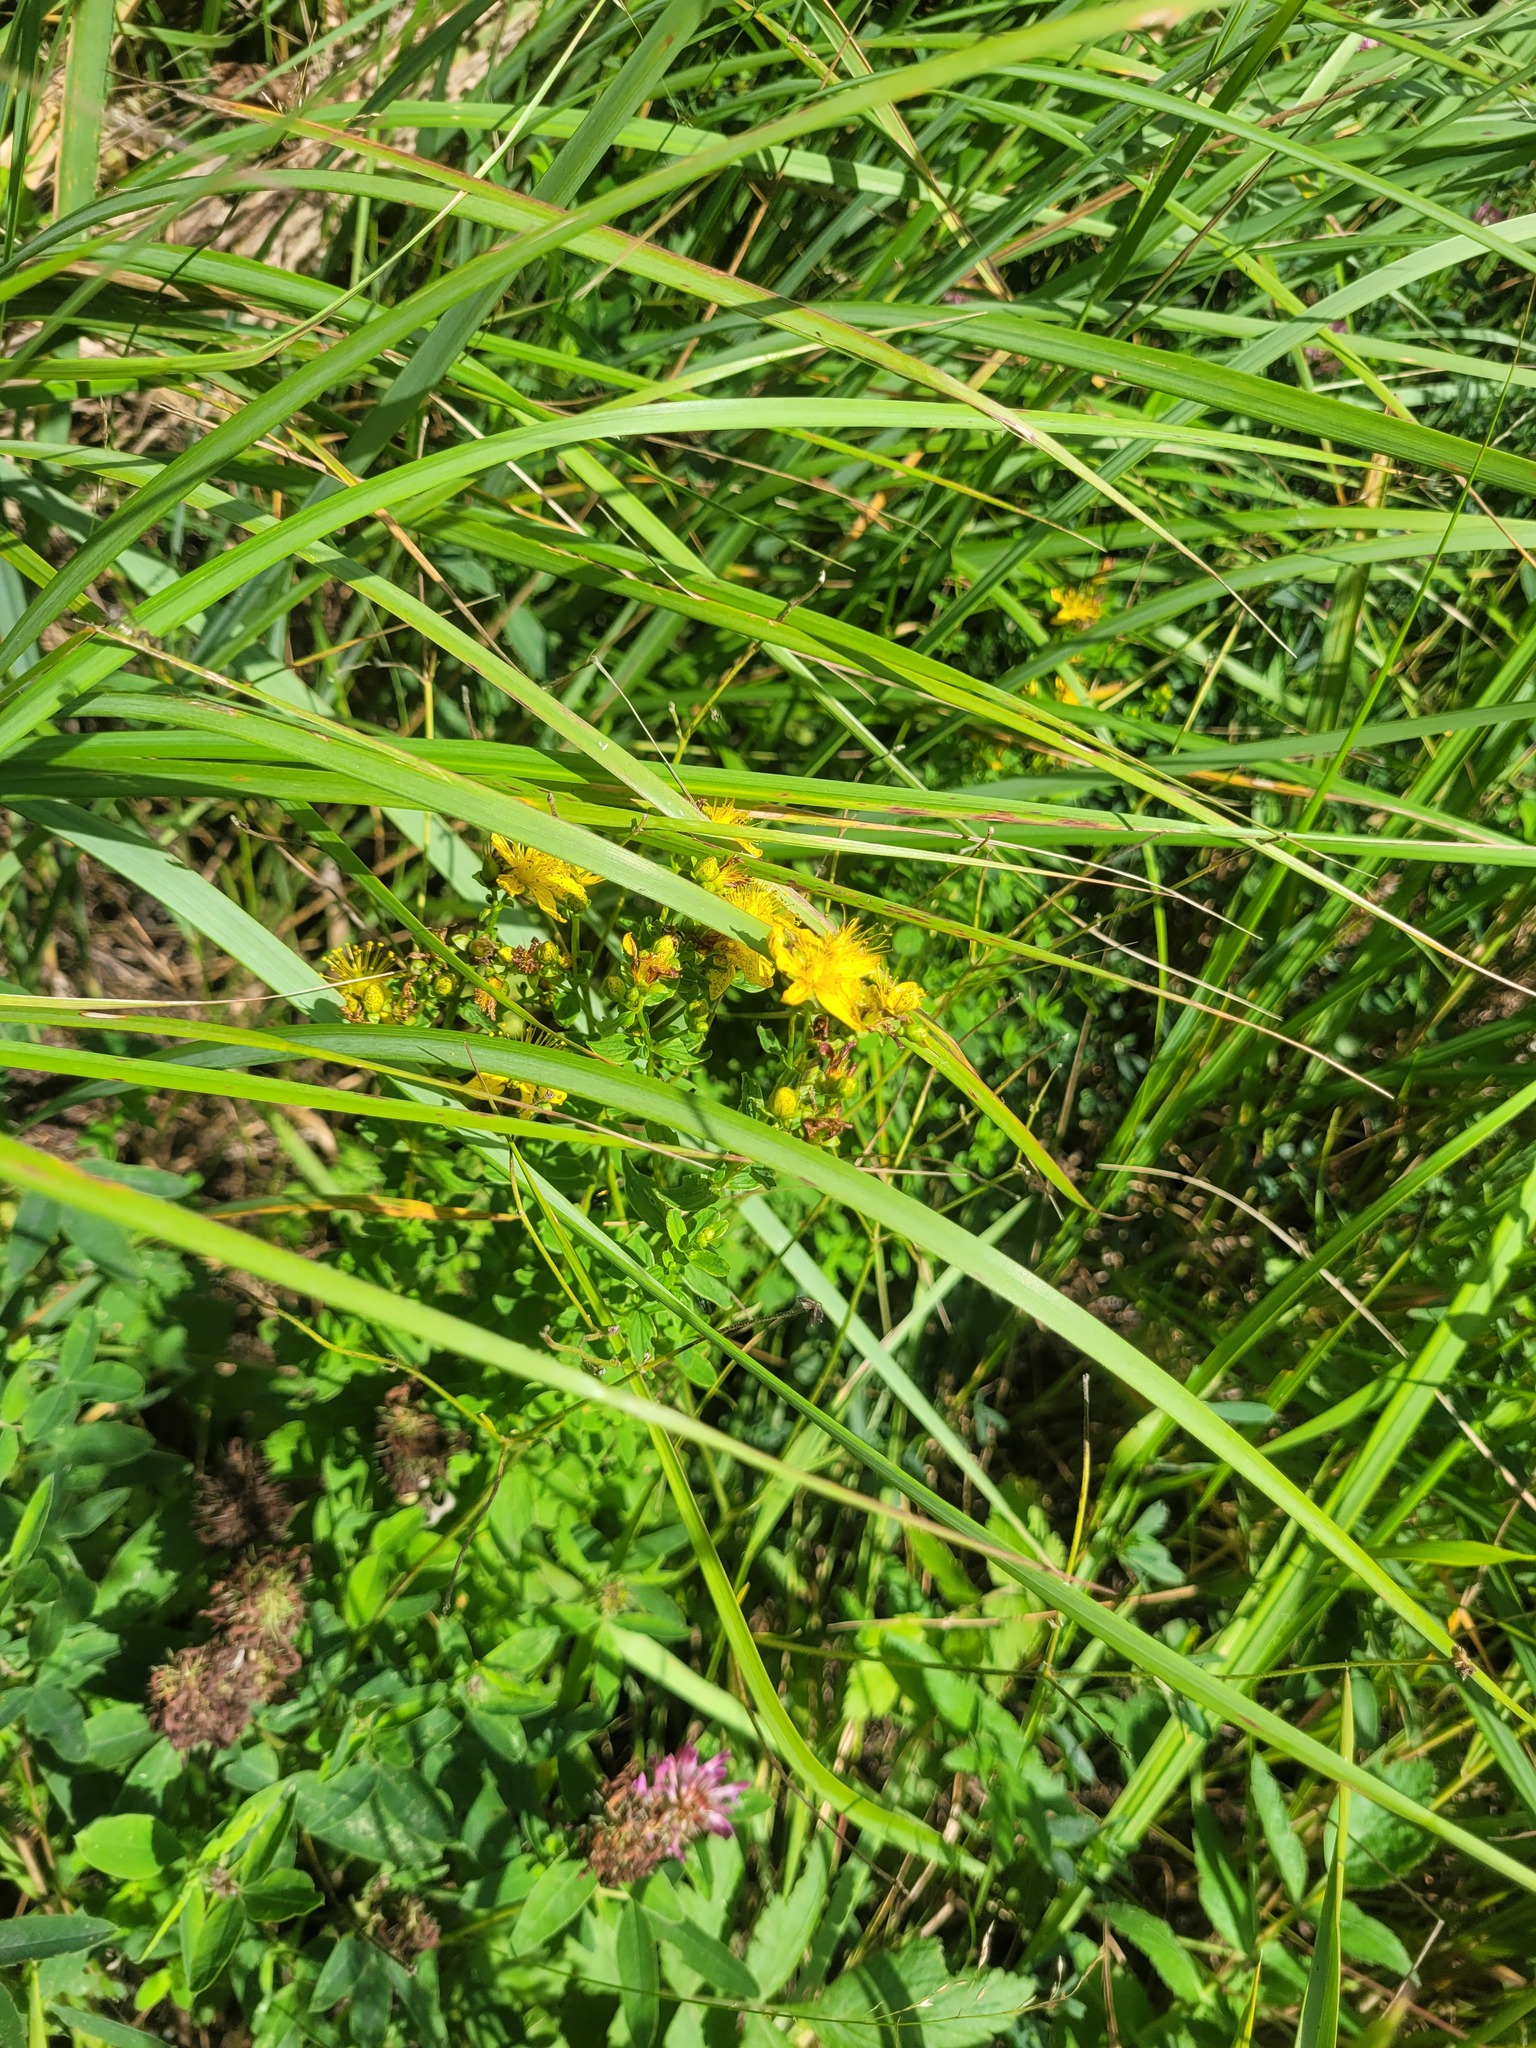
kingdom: Plantae
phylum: Tracheophyta
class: Magnoliopsida
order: Malpighiales
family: Hypericaceae
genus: Hypericum
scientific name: Hypericum maculatum
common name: Imperforate st. john's-wort
